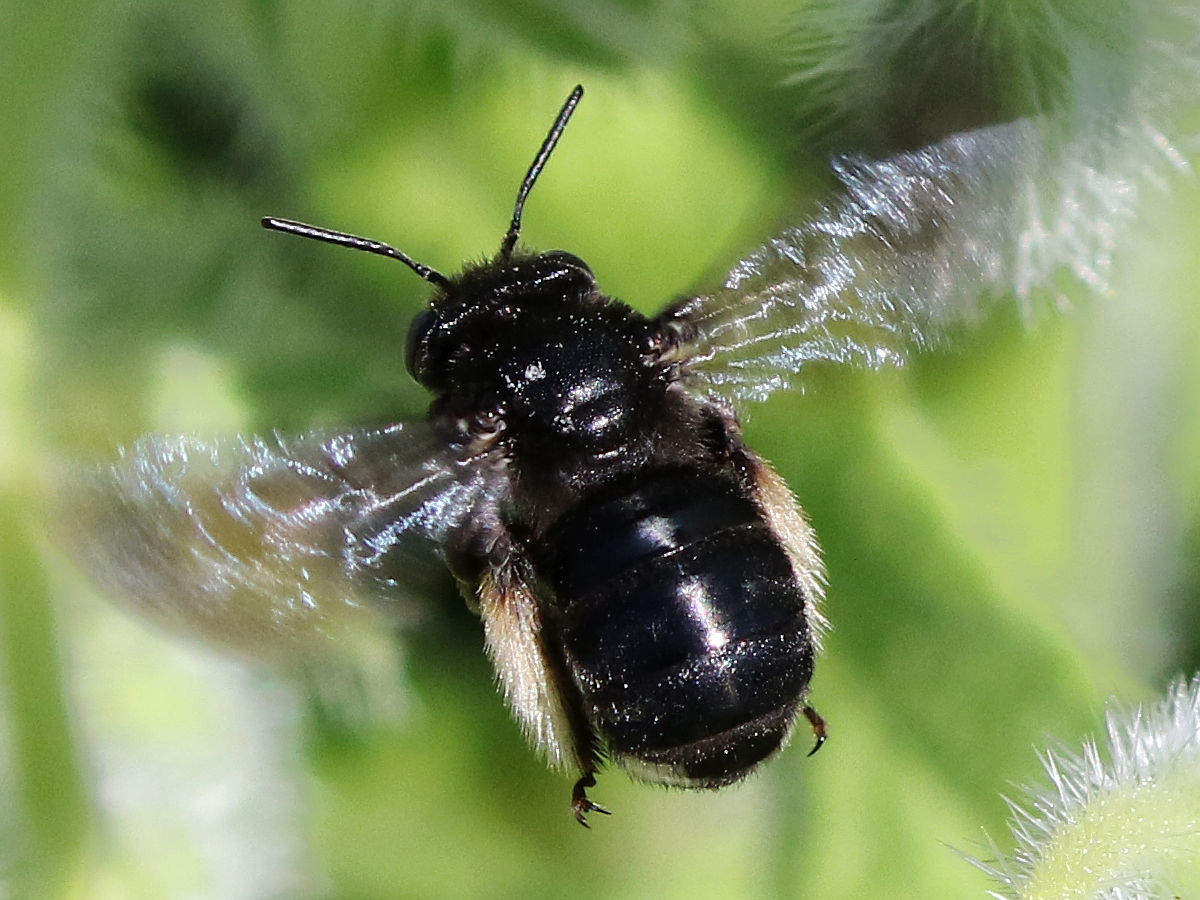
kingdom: Animalia
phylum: Arthropoda
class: Insecta
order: Hymenoptera
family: Apidae
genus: Melissodes
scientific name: Melissodes bimaculatus
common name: Two-spotted long-horned bee
